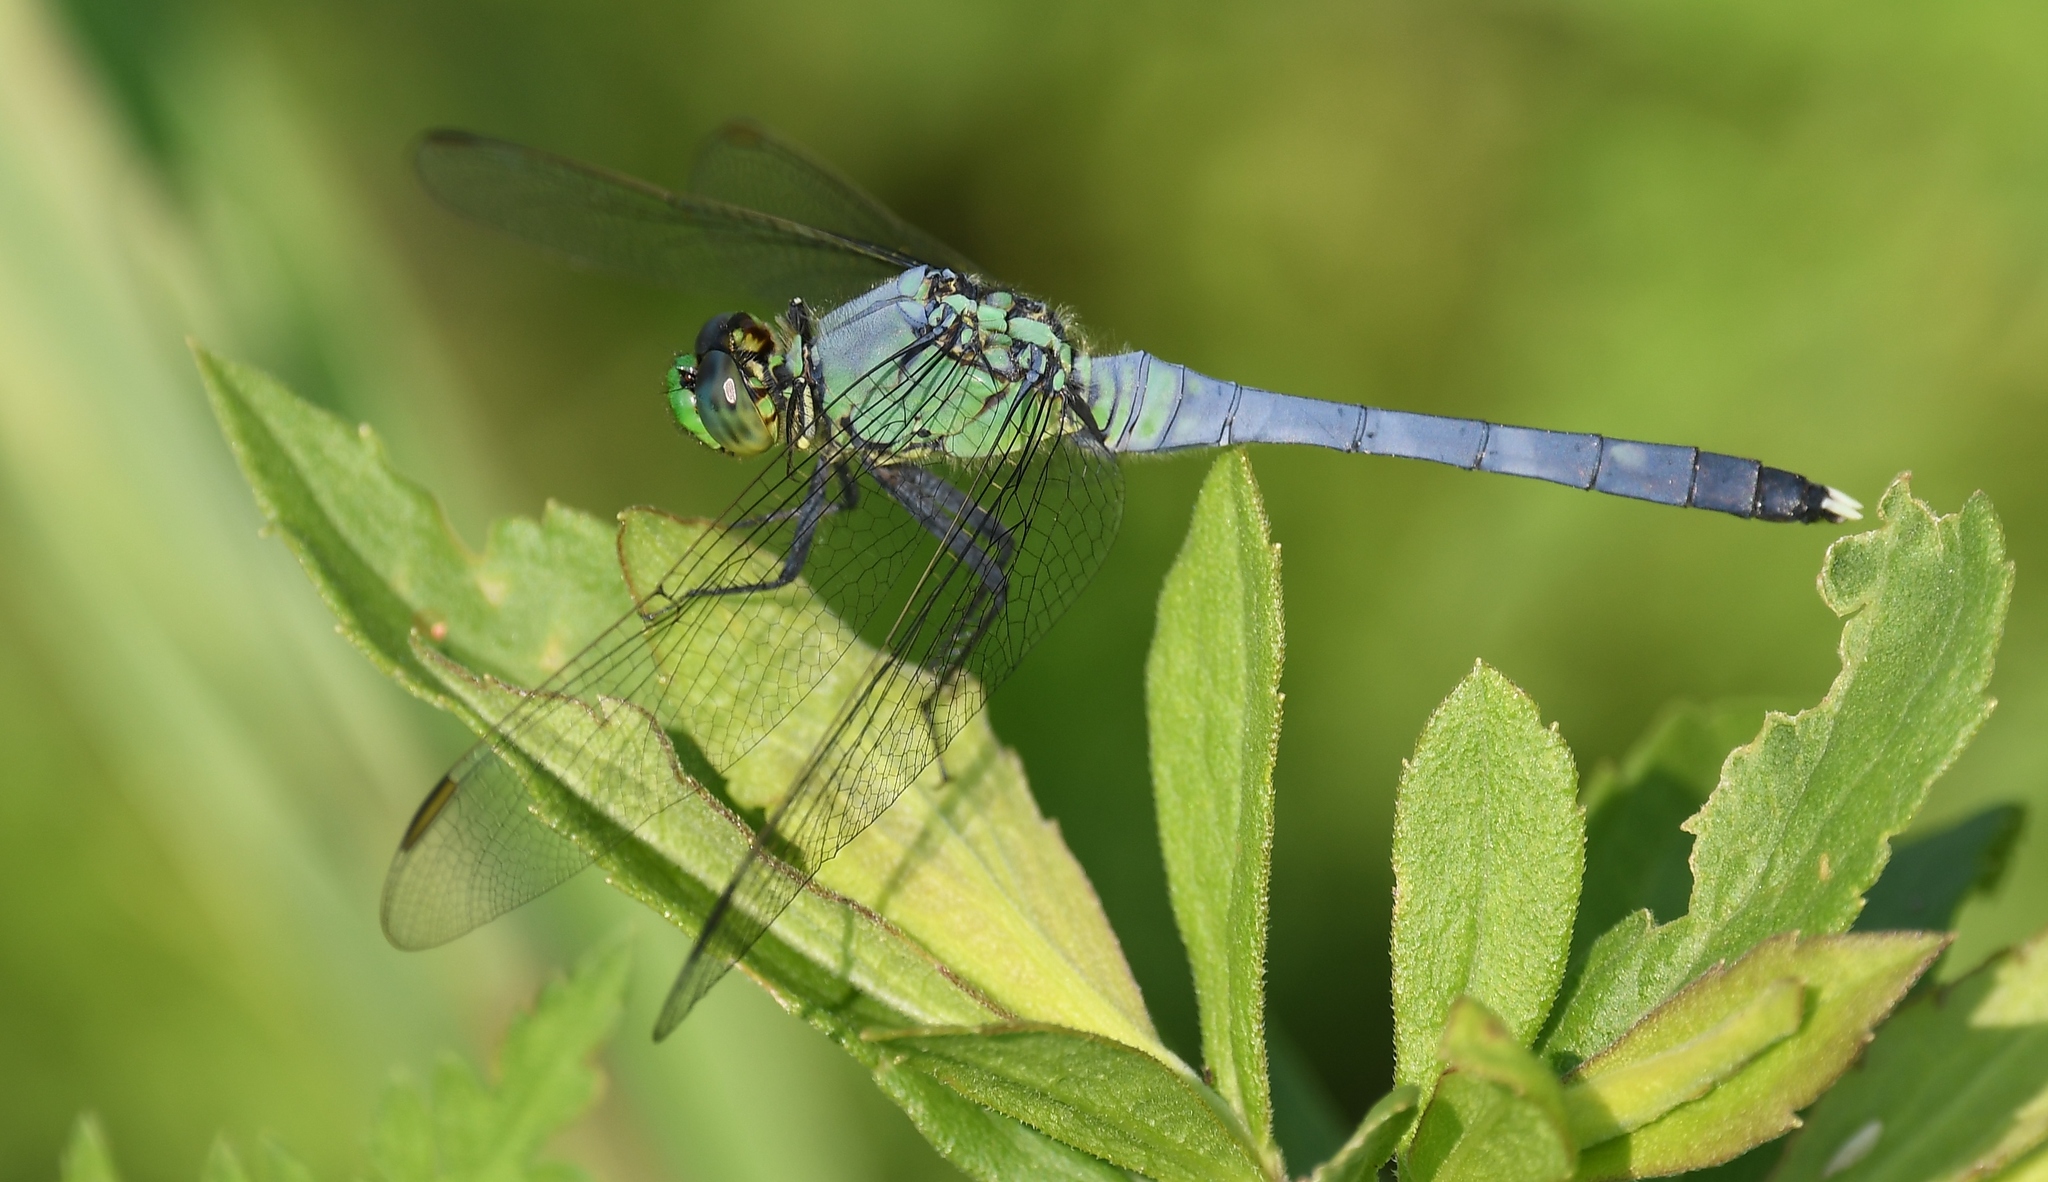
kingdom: Animalia
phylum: Arthropoda
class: Insecta
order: Odonata
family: Libellulidae
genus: Erythemis
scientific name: Erythemis simplicicollis
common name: Eastern pondhawk
